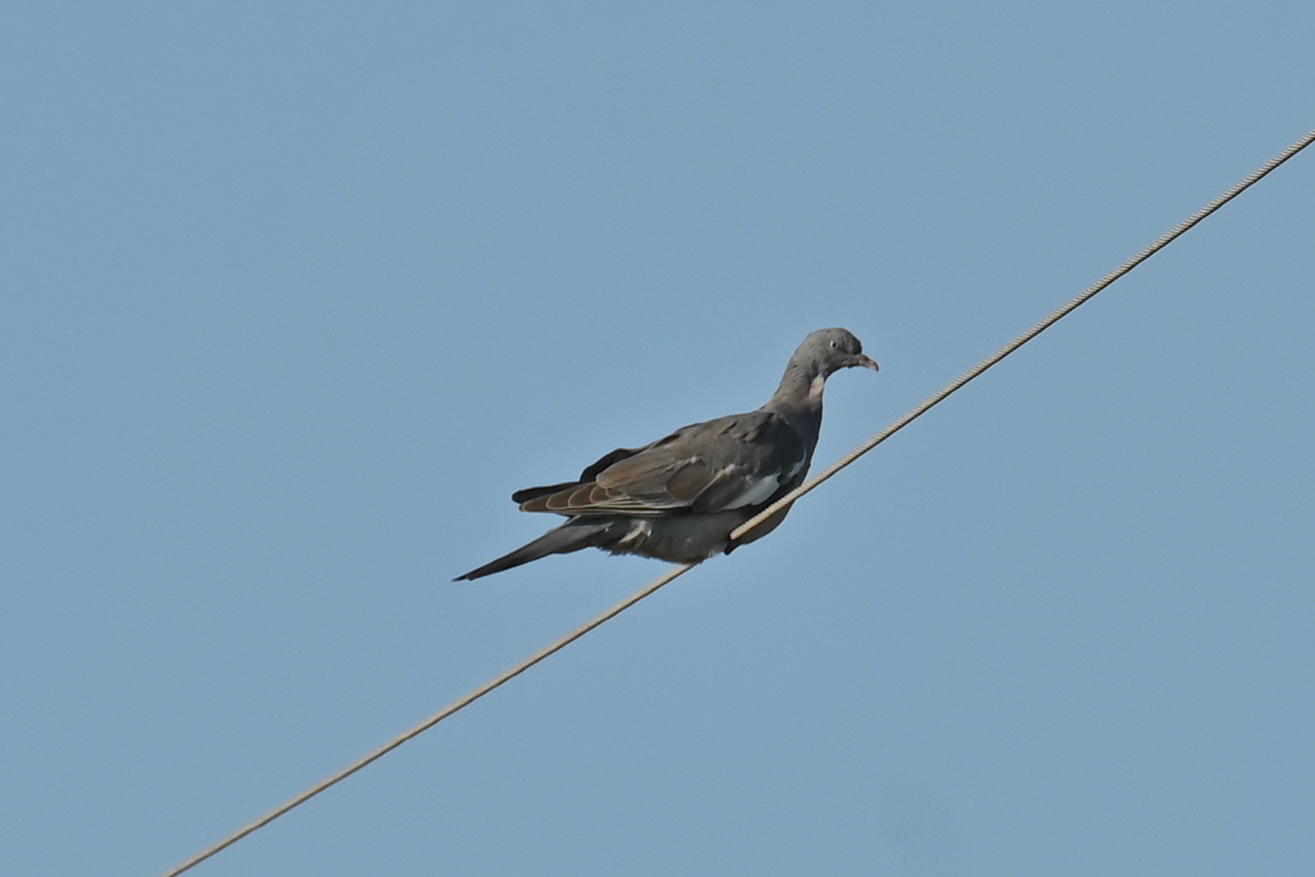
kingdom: Animalia
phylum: Chordata
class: Aves
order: Columbiformes
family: Columbidae
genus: Columba
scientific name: Columba palumbus
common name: Common wood pigeon
